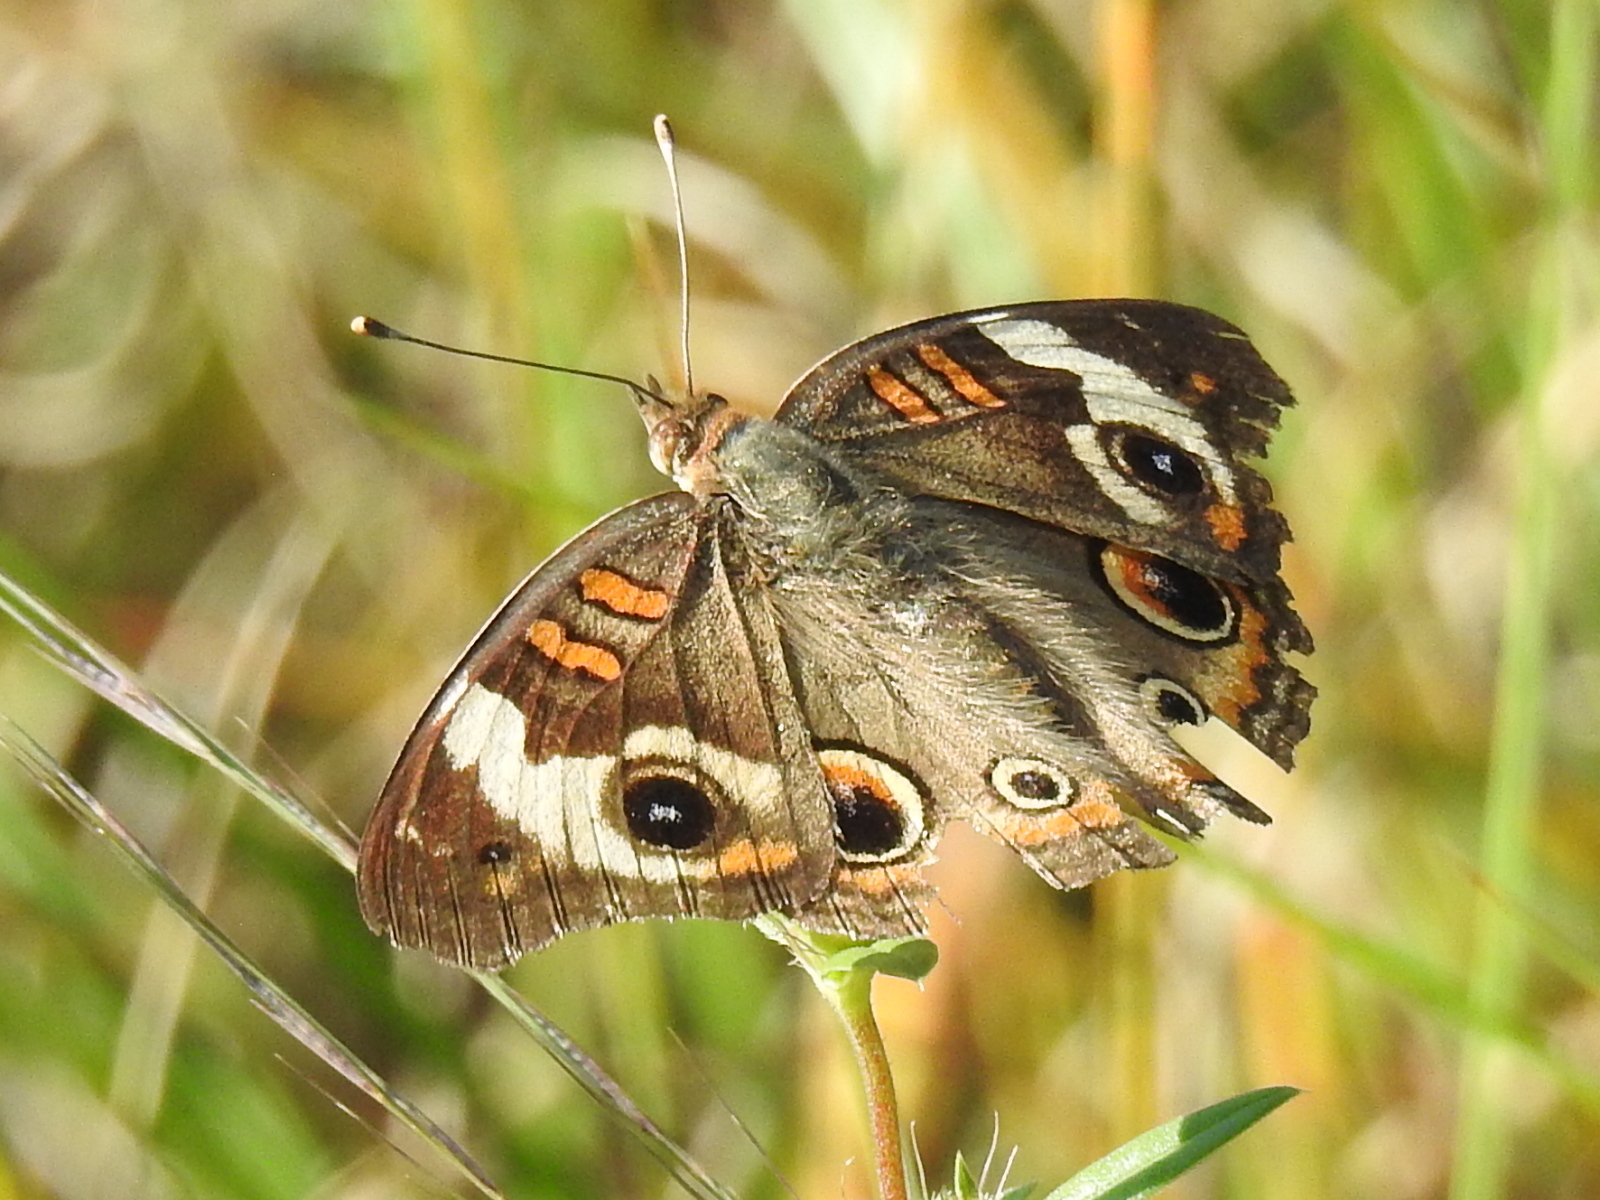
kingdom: Animalia
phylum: Arthropoda
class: Insecta
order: Lepidoptera
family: Nymphalidae
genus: Junonia
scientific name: Junonia coenia
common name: Common buckeye
